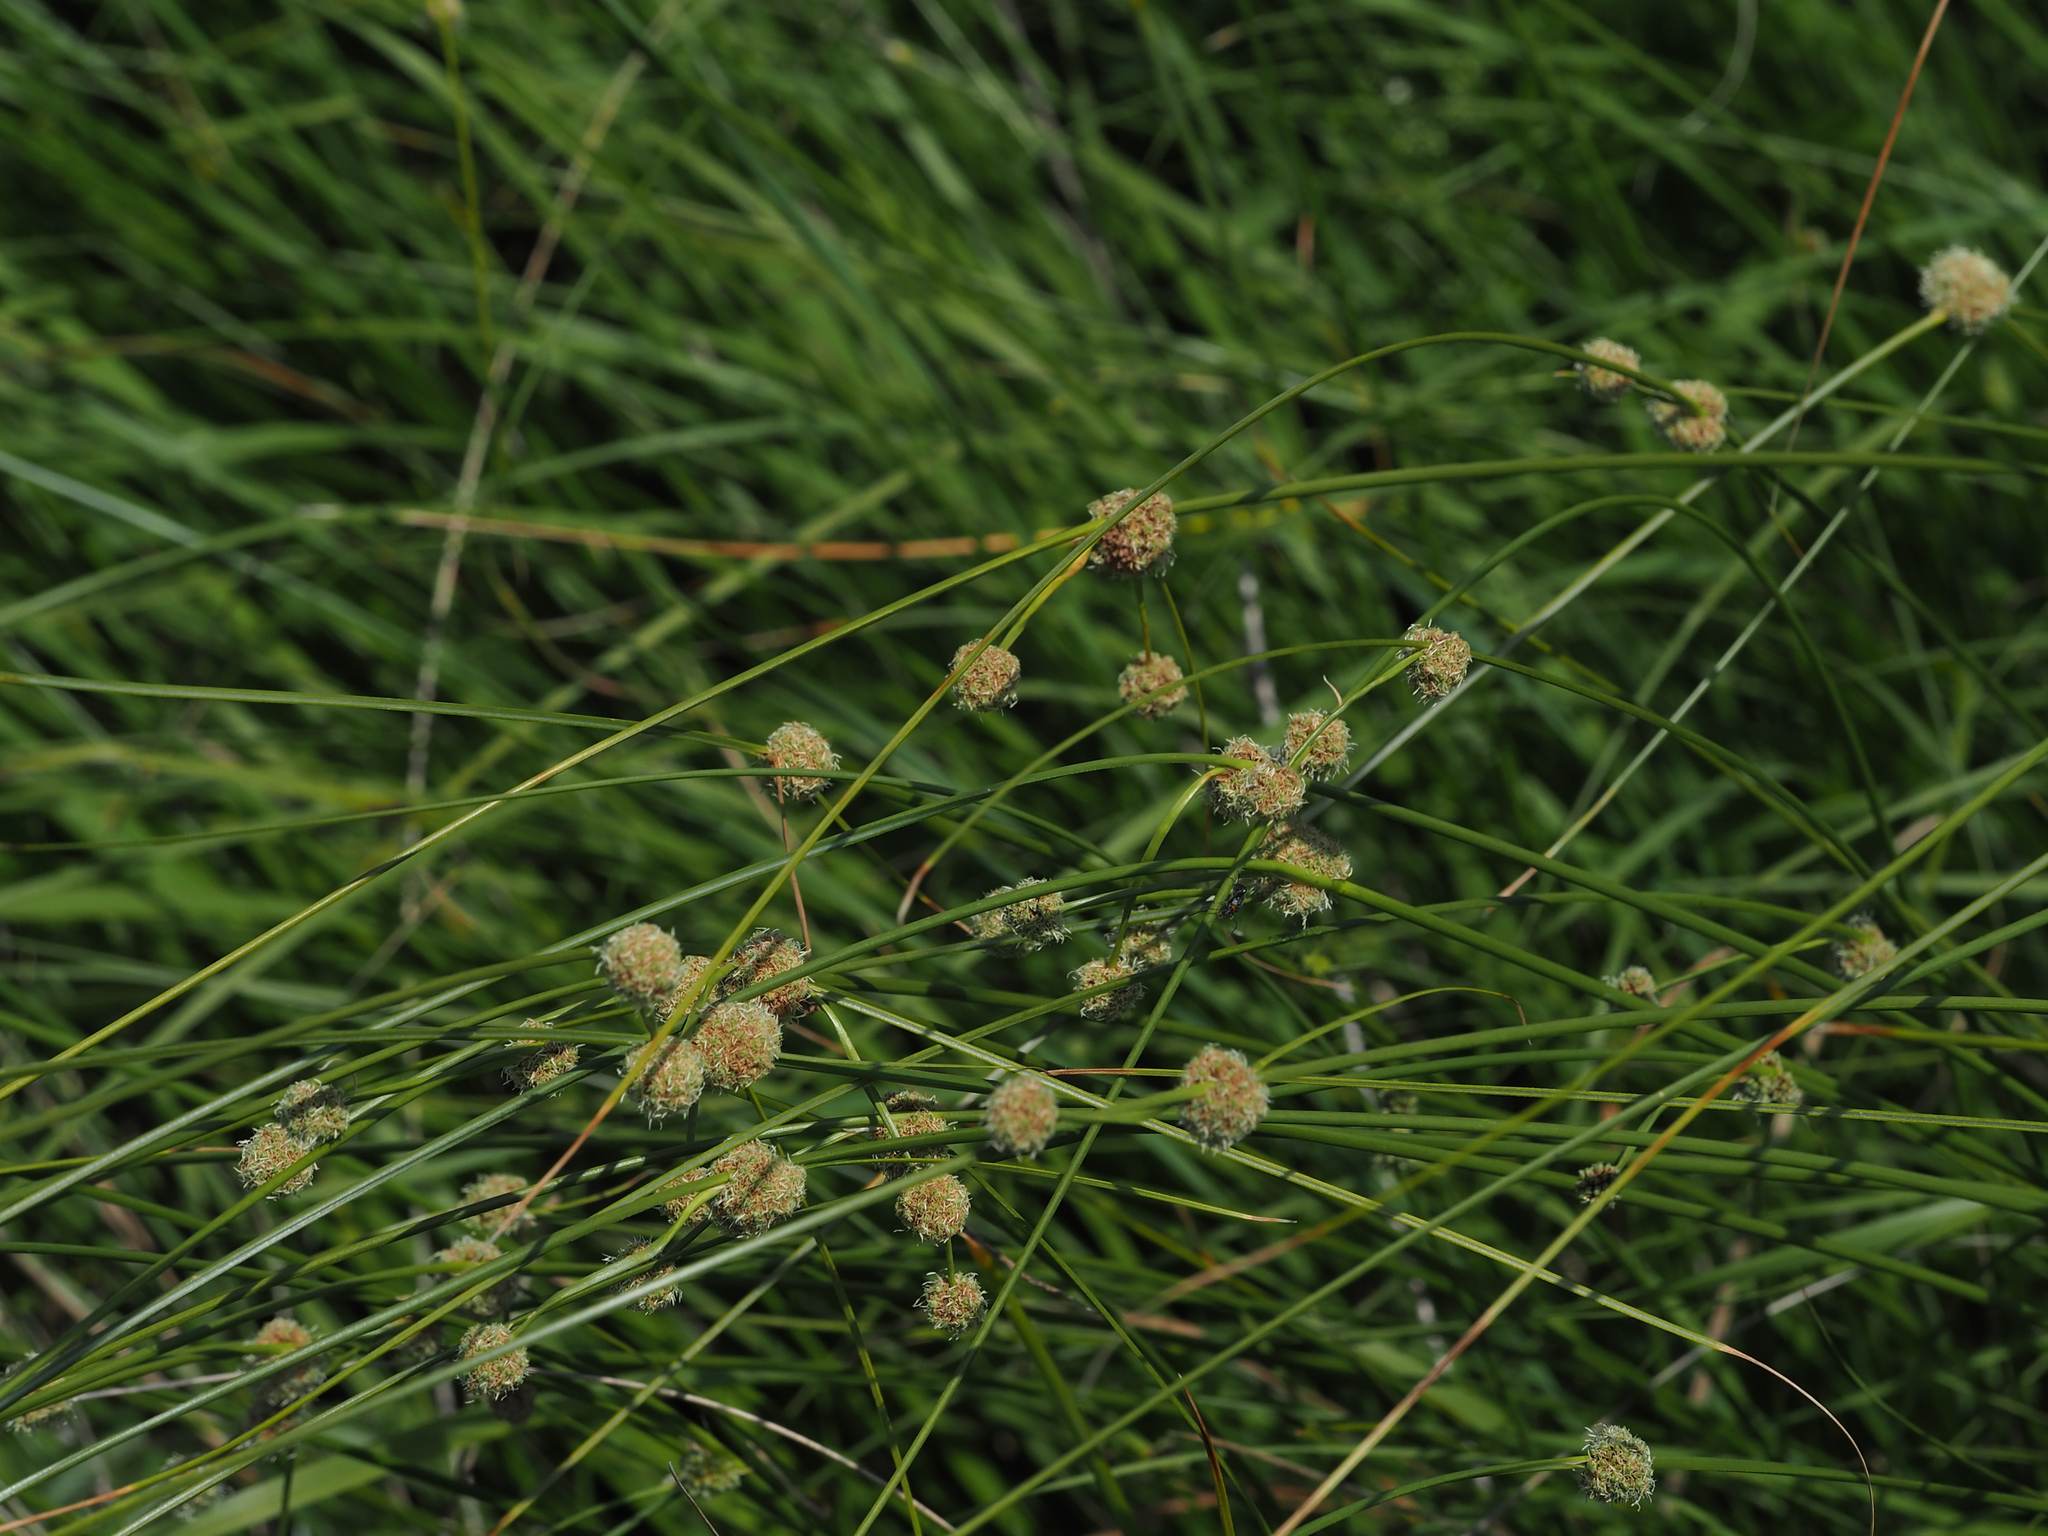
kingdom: Plantae
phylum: Tracheophyta
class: Liliopsida
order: Poales
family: Cyperaceae
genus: Scirpoides
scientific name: Scirpoides holoschoenus
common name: Round-headed club-rush
